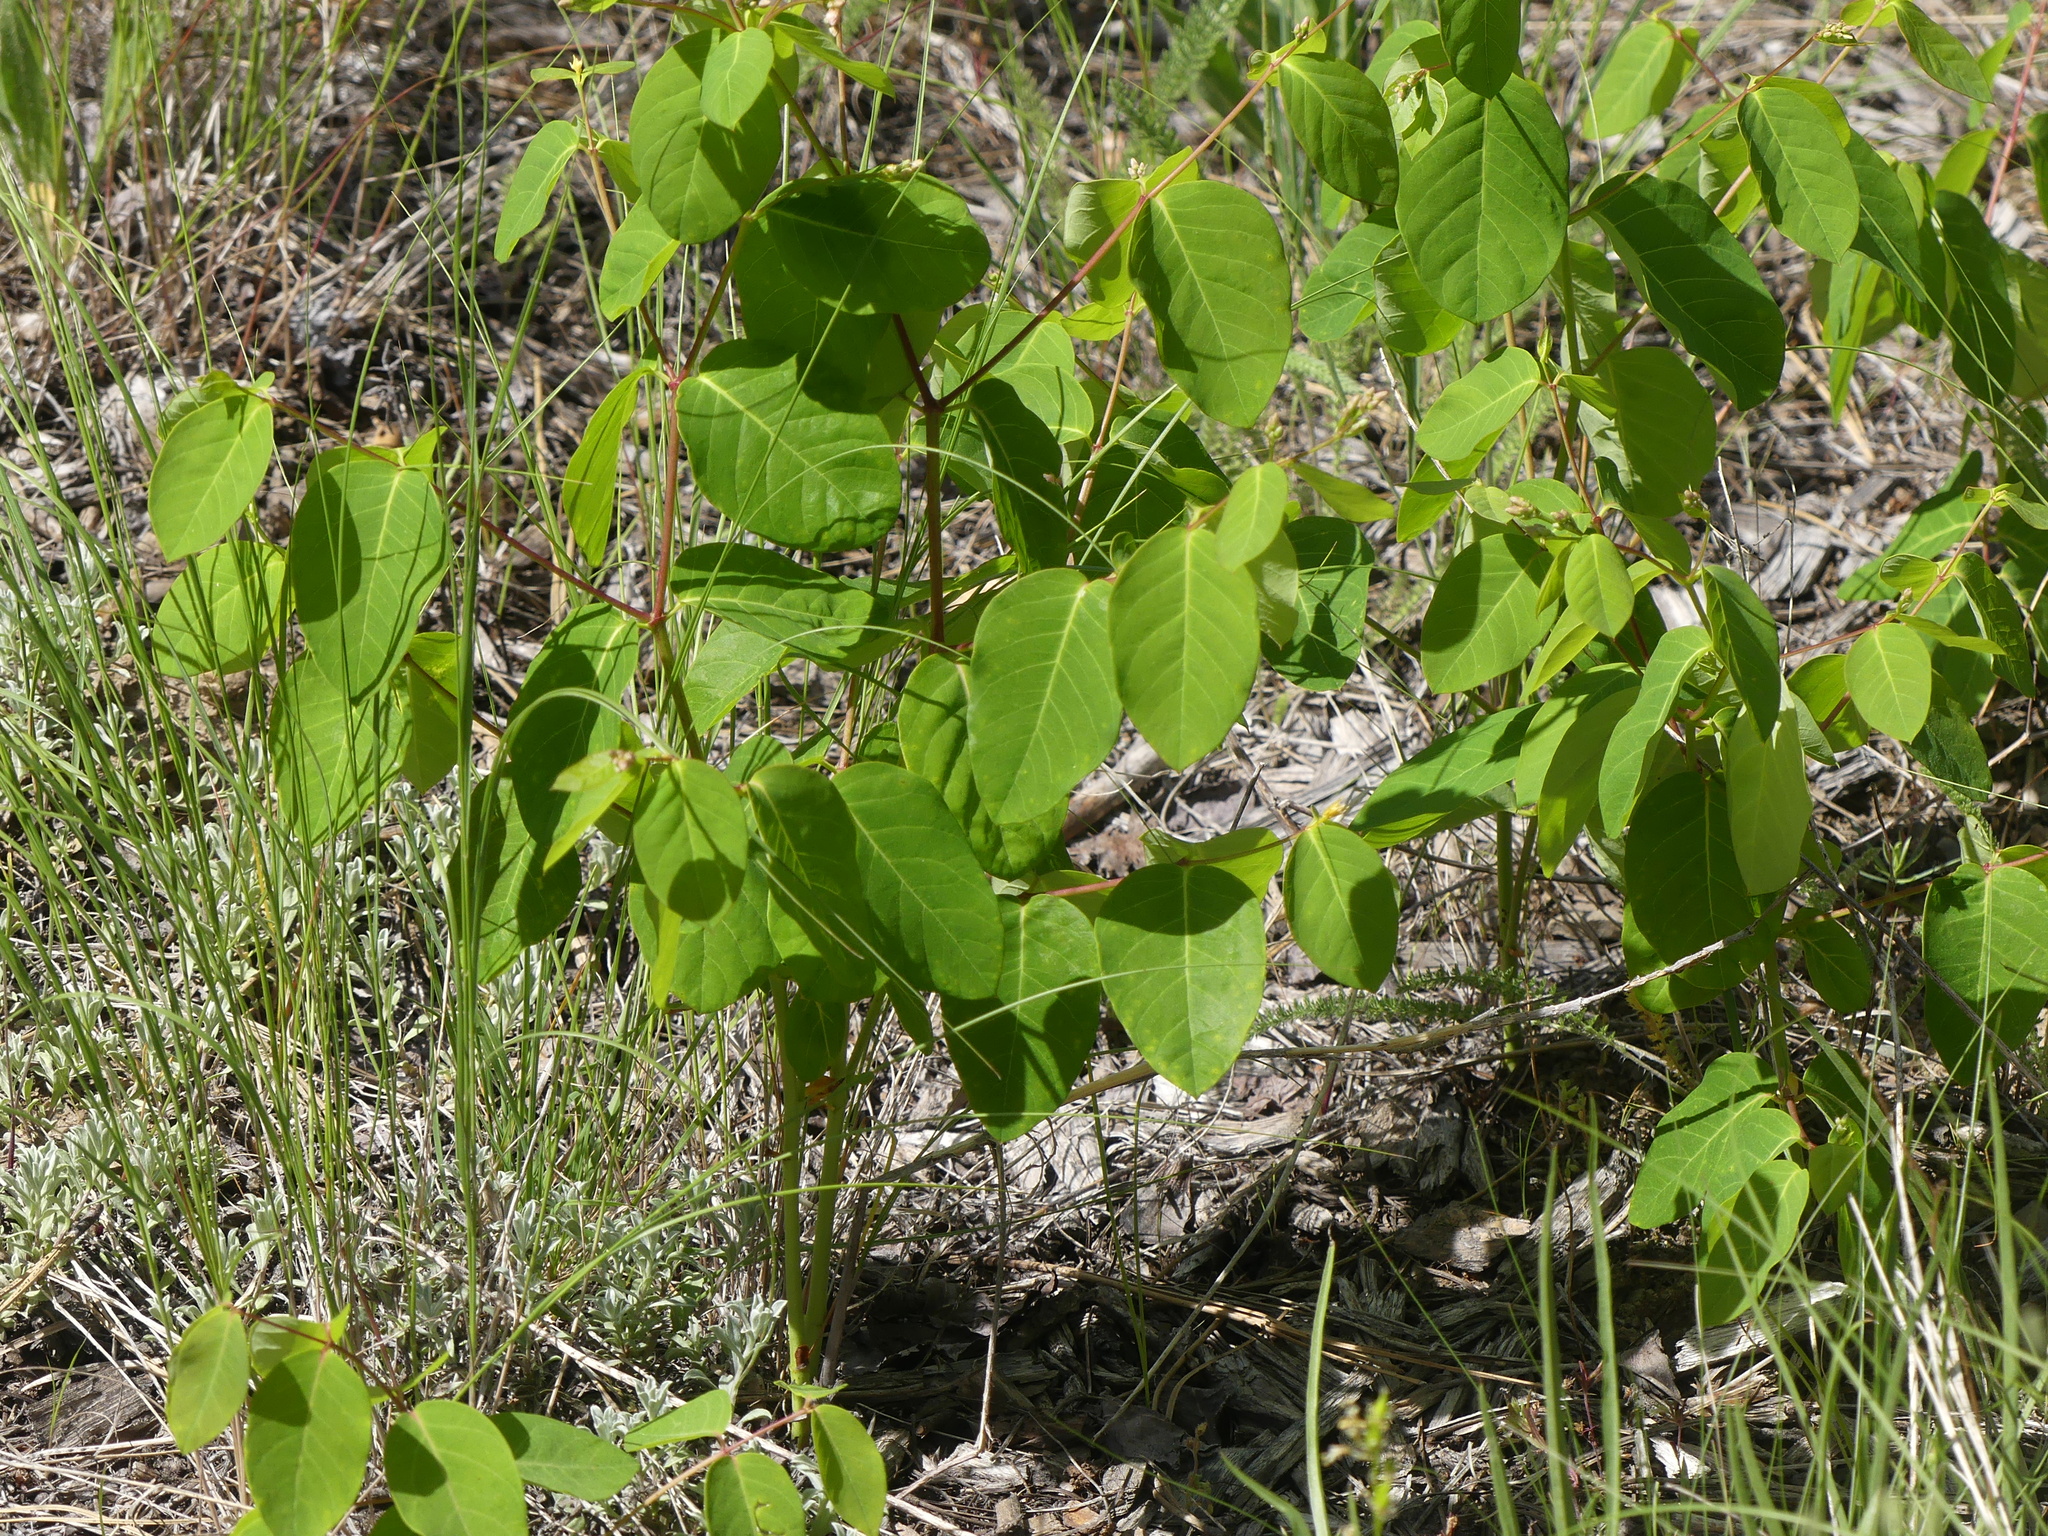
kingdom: Plantae
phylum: Tracheophyta
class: Magnoliopsida
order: Gentianales
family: Apocynaceae
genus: Apocynum
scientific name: Apocynum androsaemifolium
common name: Spreading dogbane
